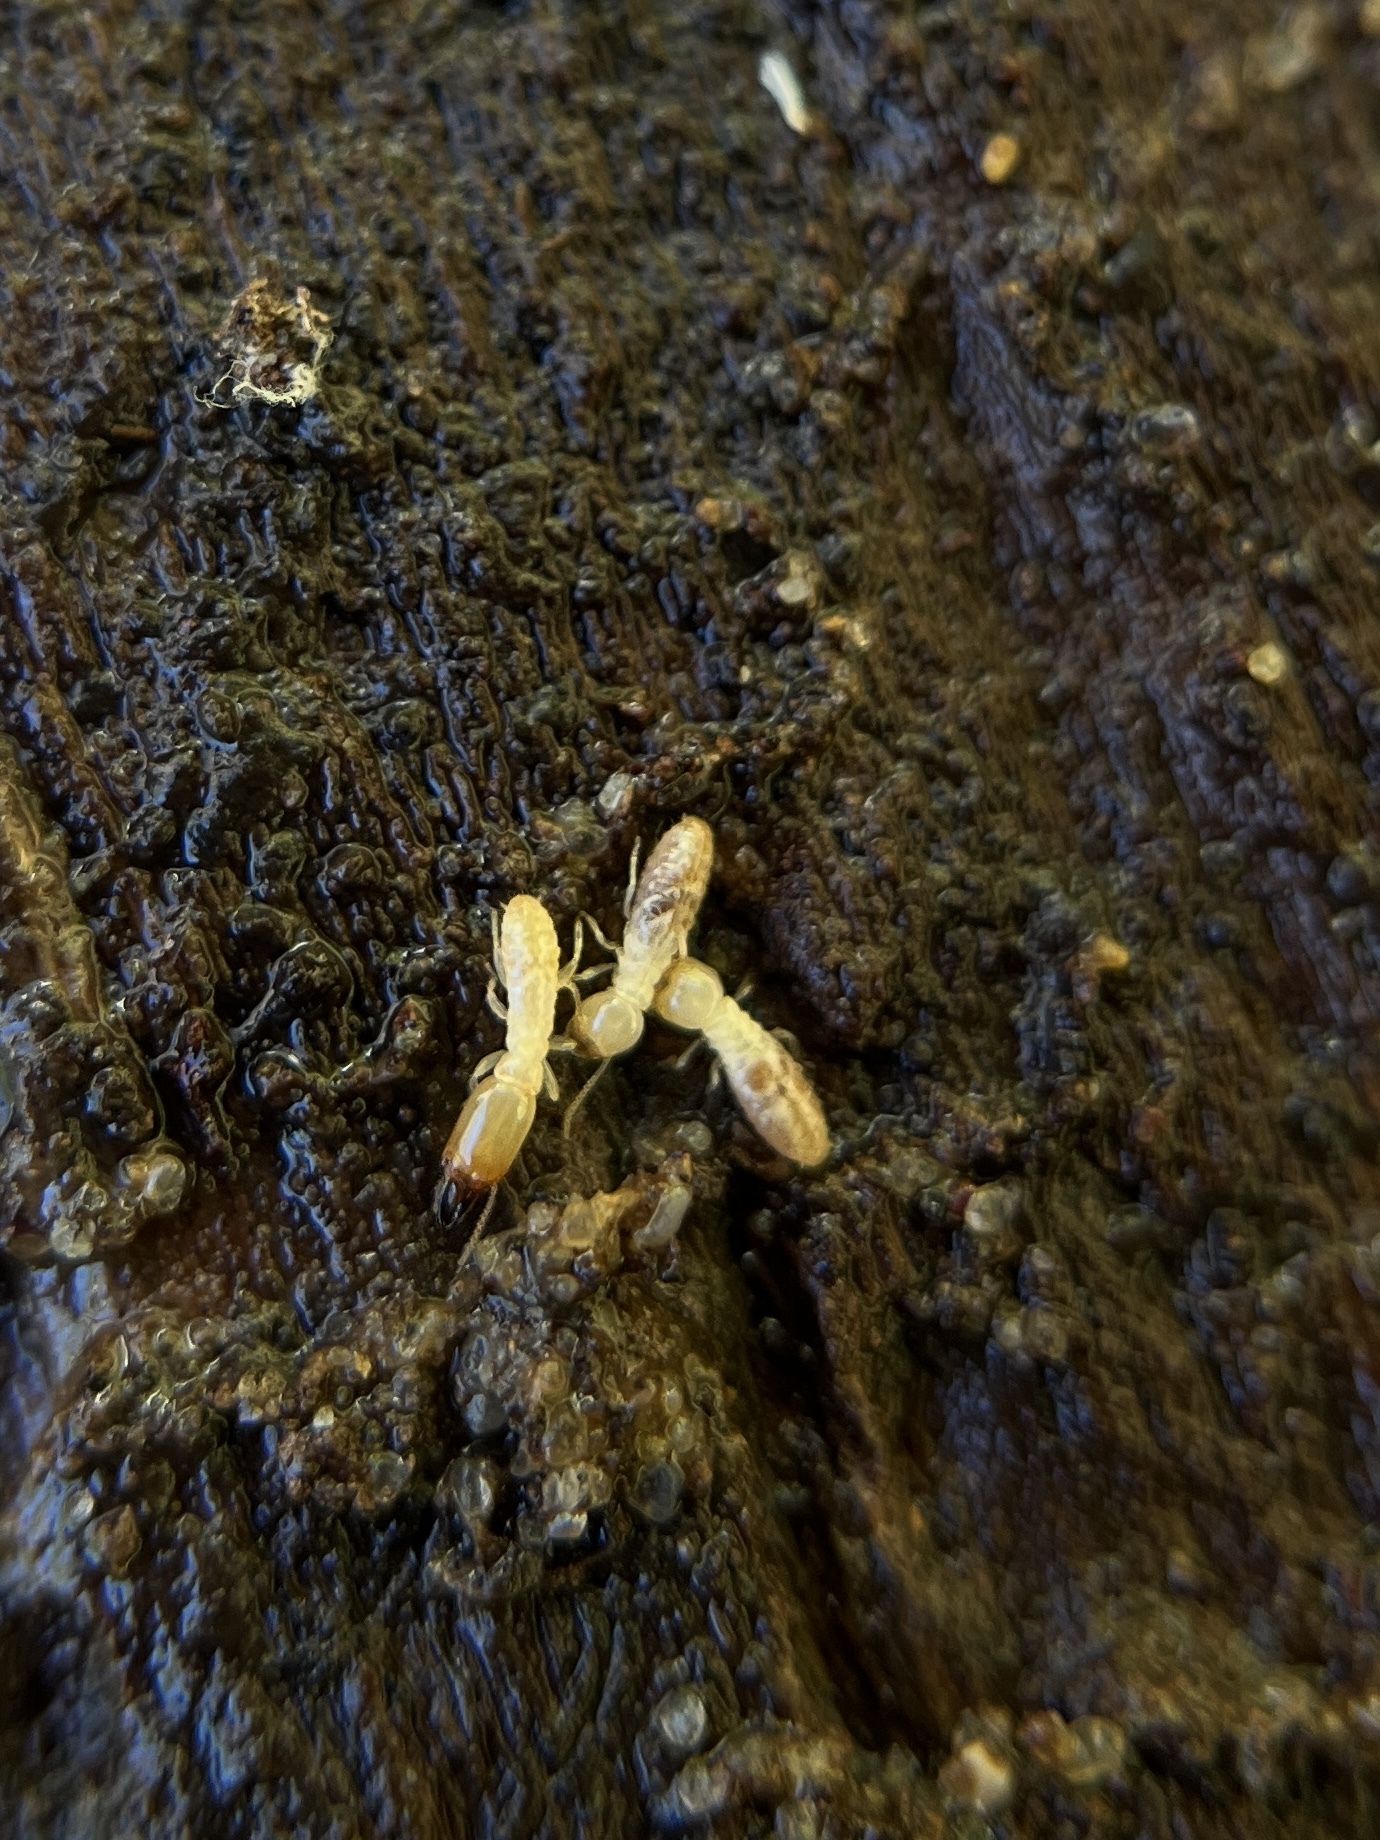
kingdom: Animalia
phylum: Arthropoda
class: Insecta
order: Blattodea
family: Rhinotermitidae
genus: Reticulitermes
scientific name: Reticulitermes
